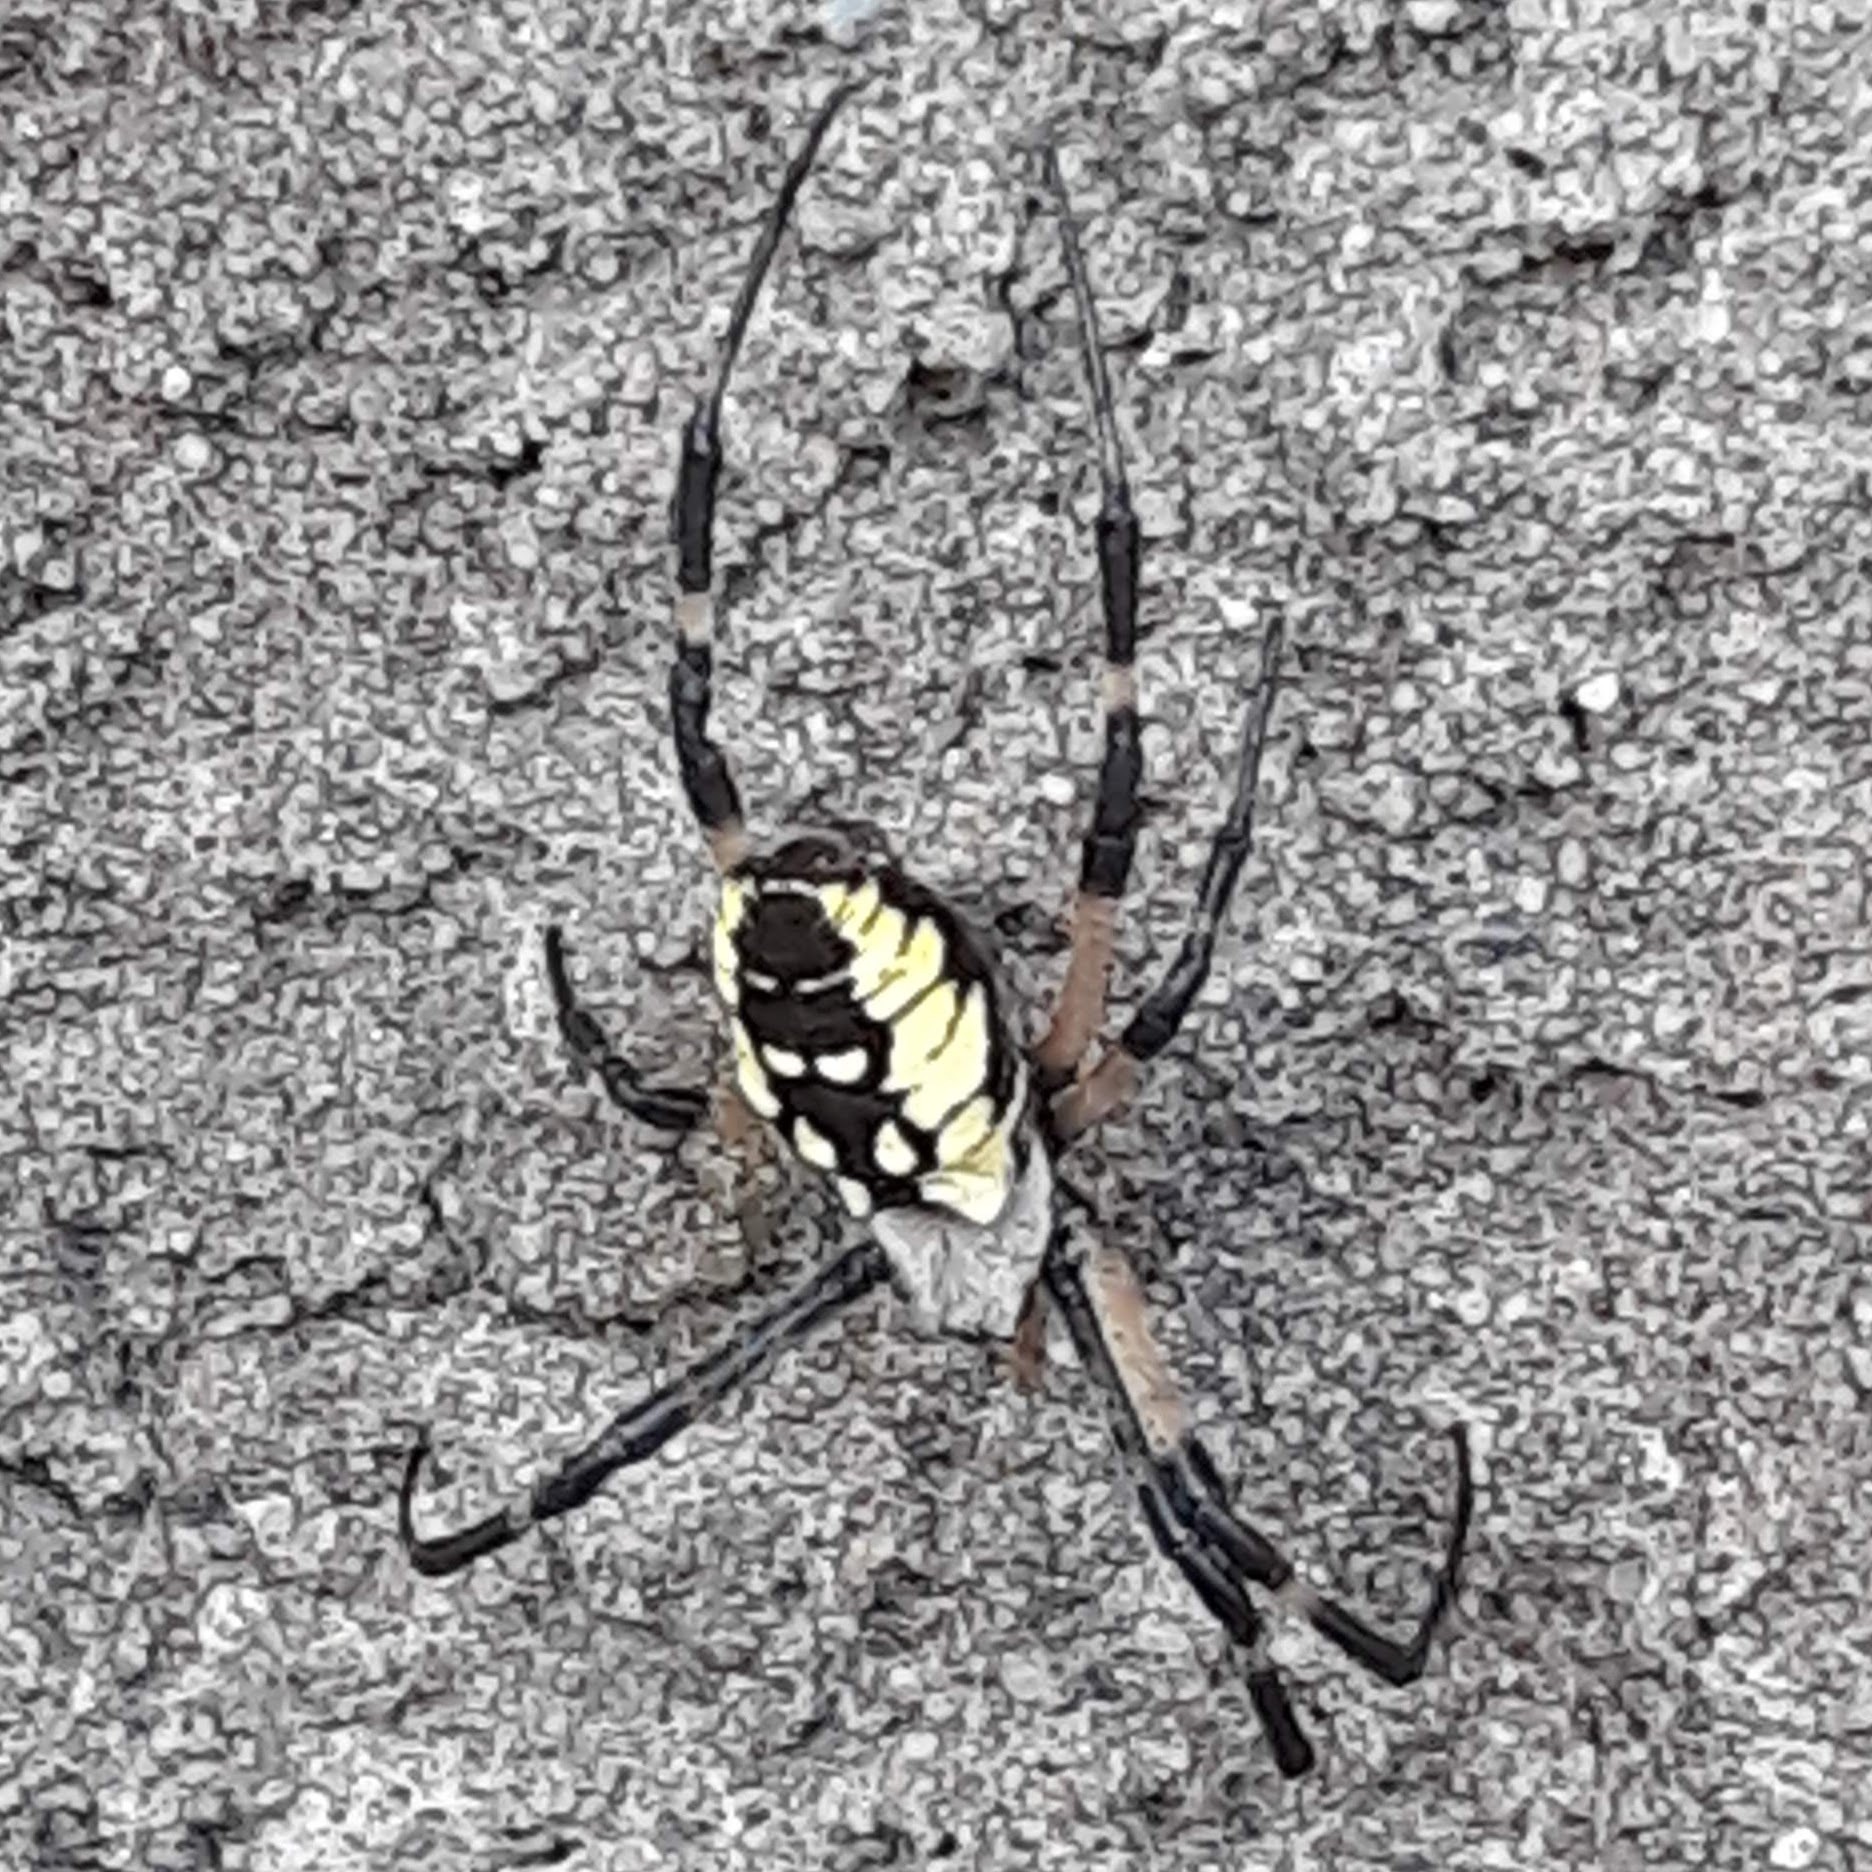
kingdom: Animalia
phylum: Arthropoda
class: Arachnida
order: Araneae
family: Araneidae
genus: Argiope
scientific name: Argiope aurantia
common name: Orb weavers
